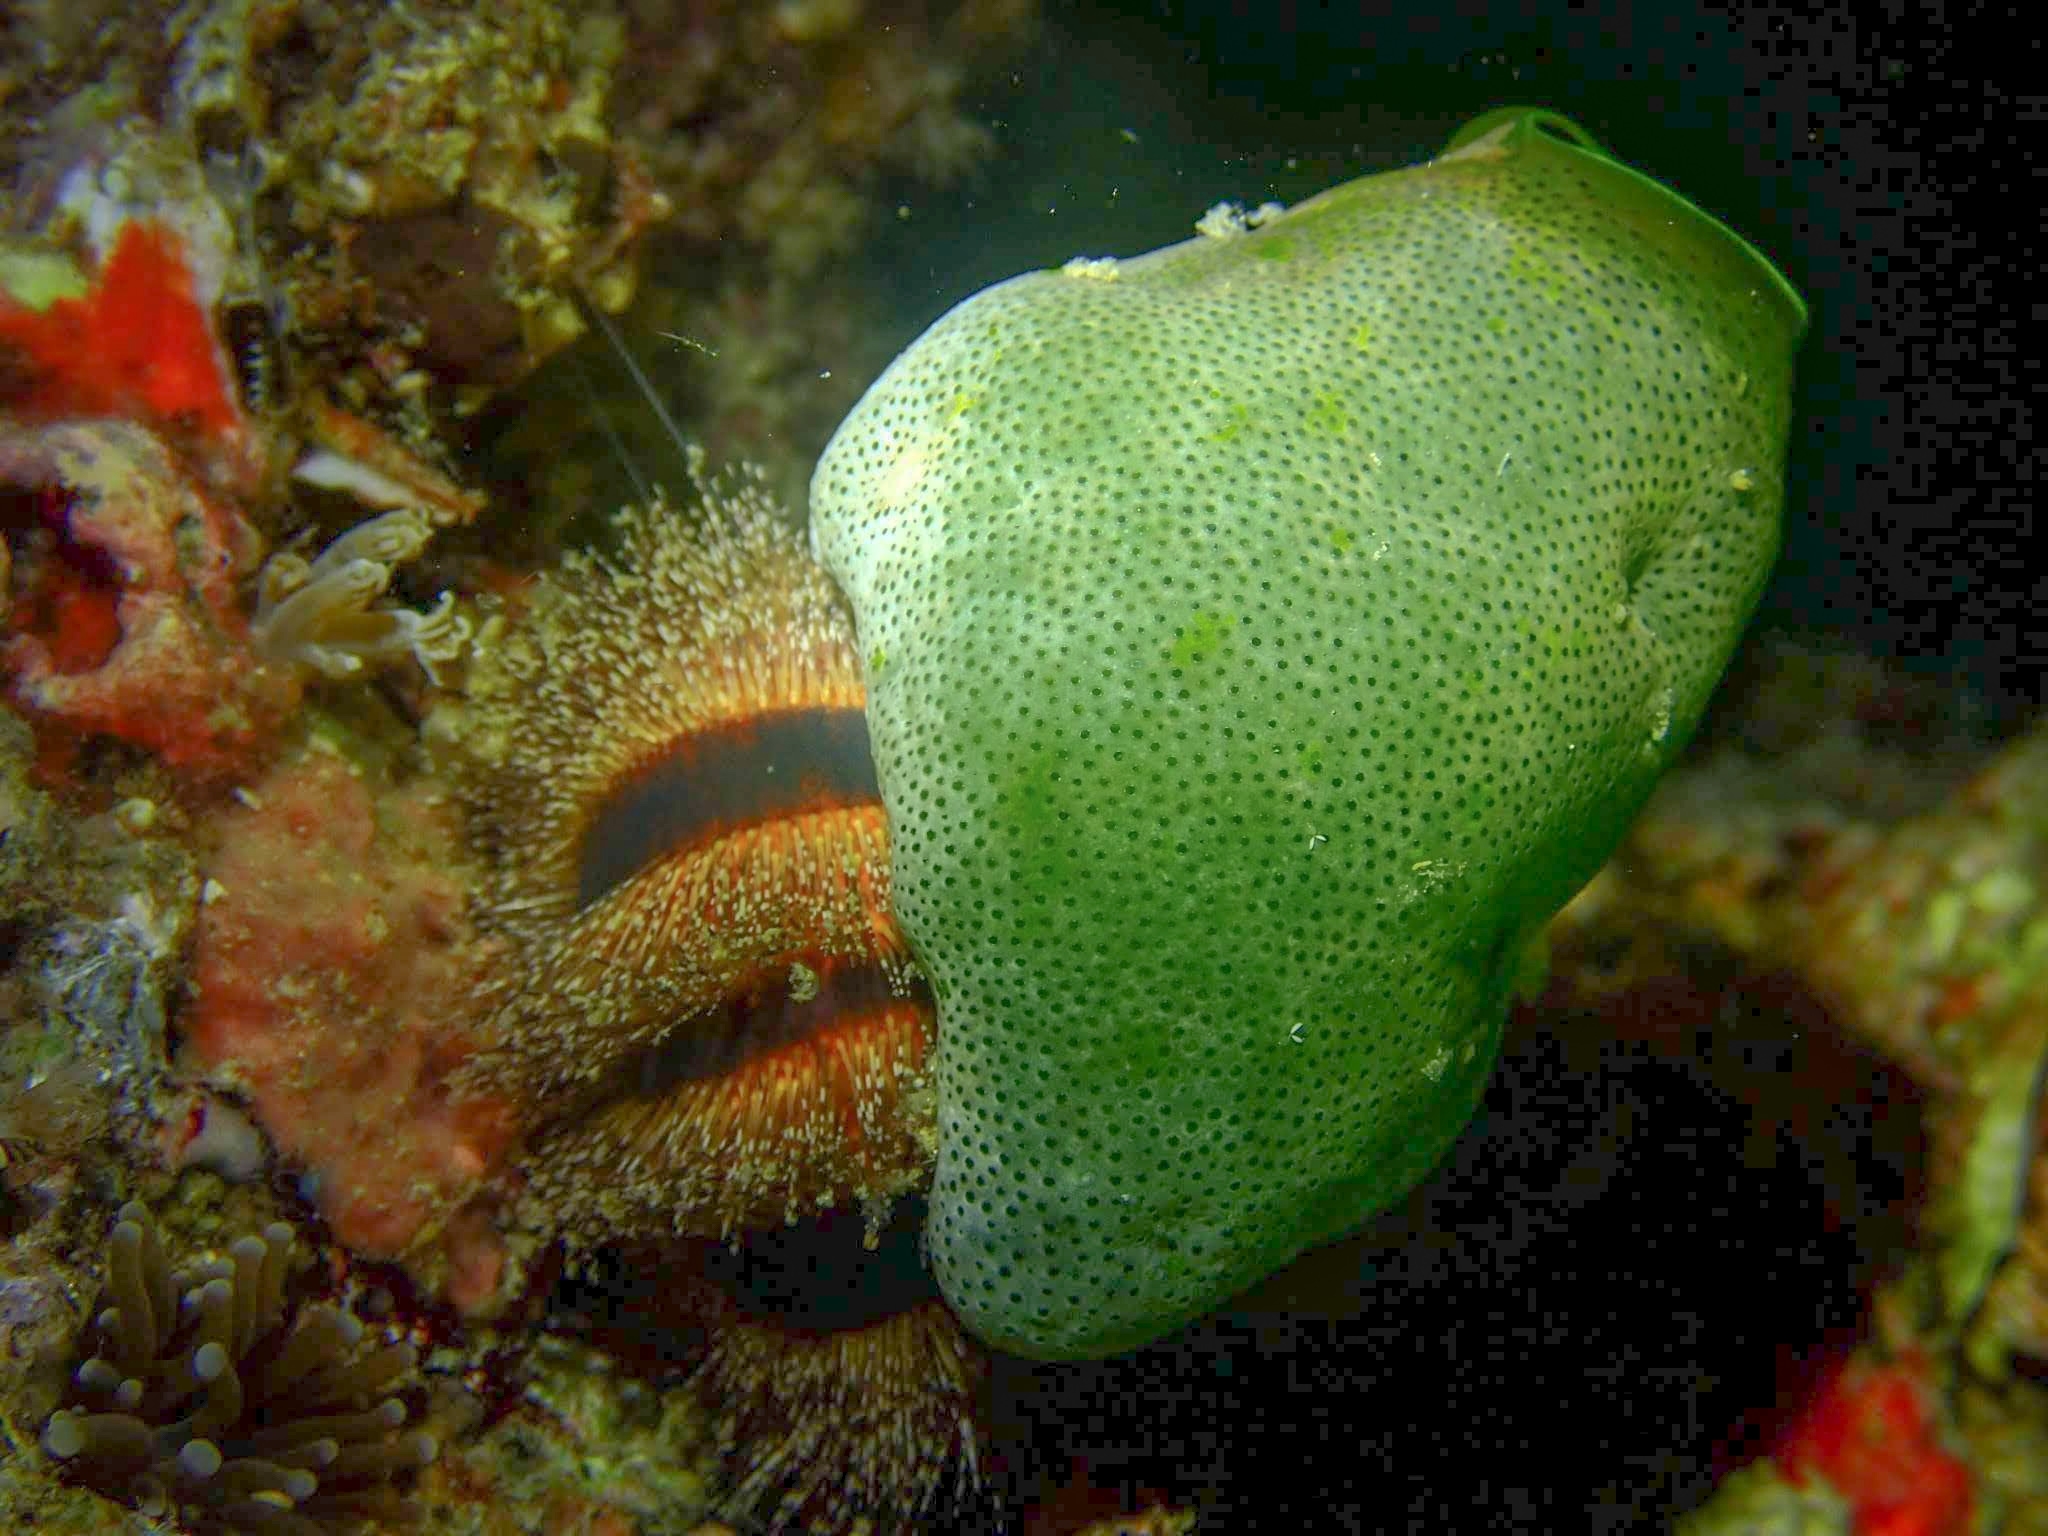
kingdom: Animalia
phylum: Chordata
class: Ascidiacea
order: Aplousobranchia
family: Didemnidae
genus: Didemnum
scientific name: Didemnum molle
